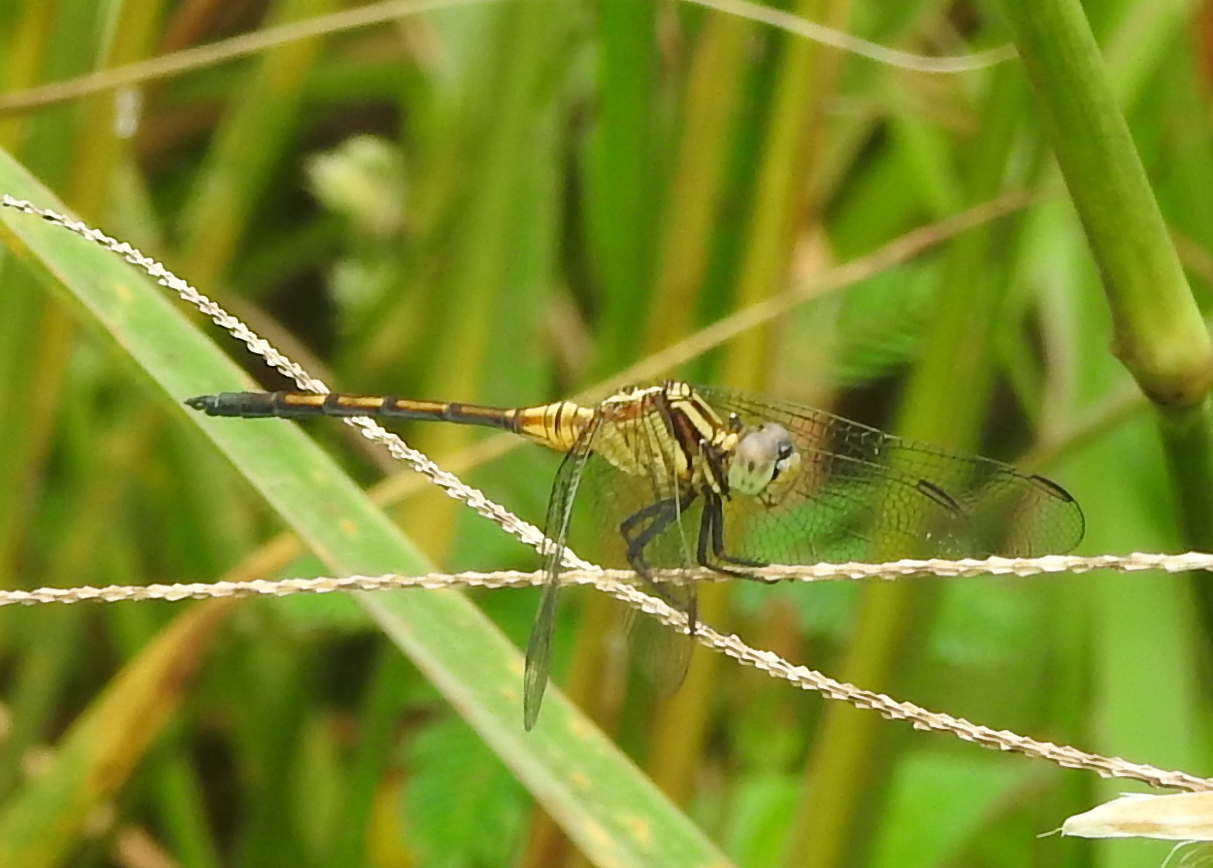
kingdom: Animalia
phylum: Arthropoda
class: Insecta
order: Odonata
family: Libellulidae
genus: Orthetrum
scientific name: Orthetrum luzonicum
